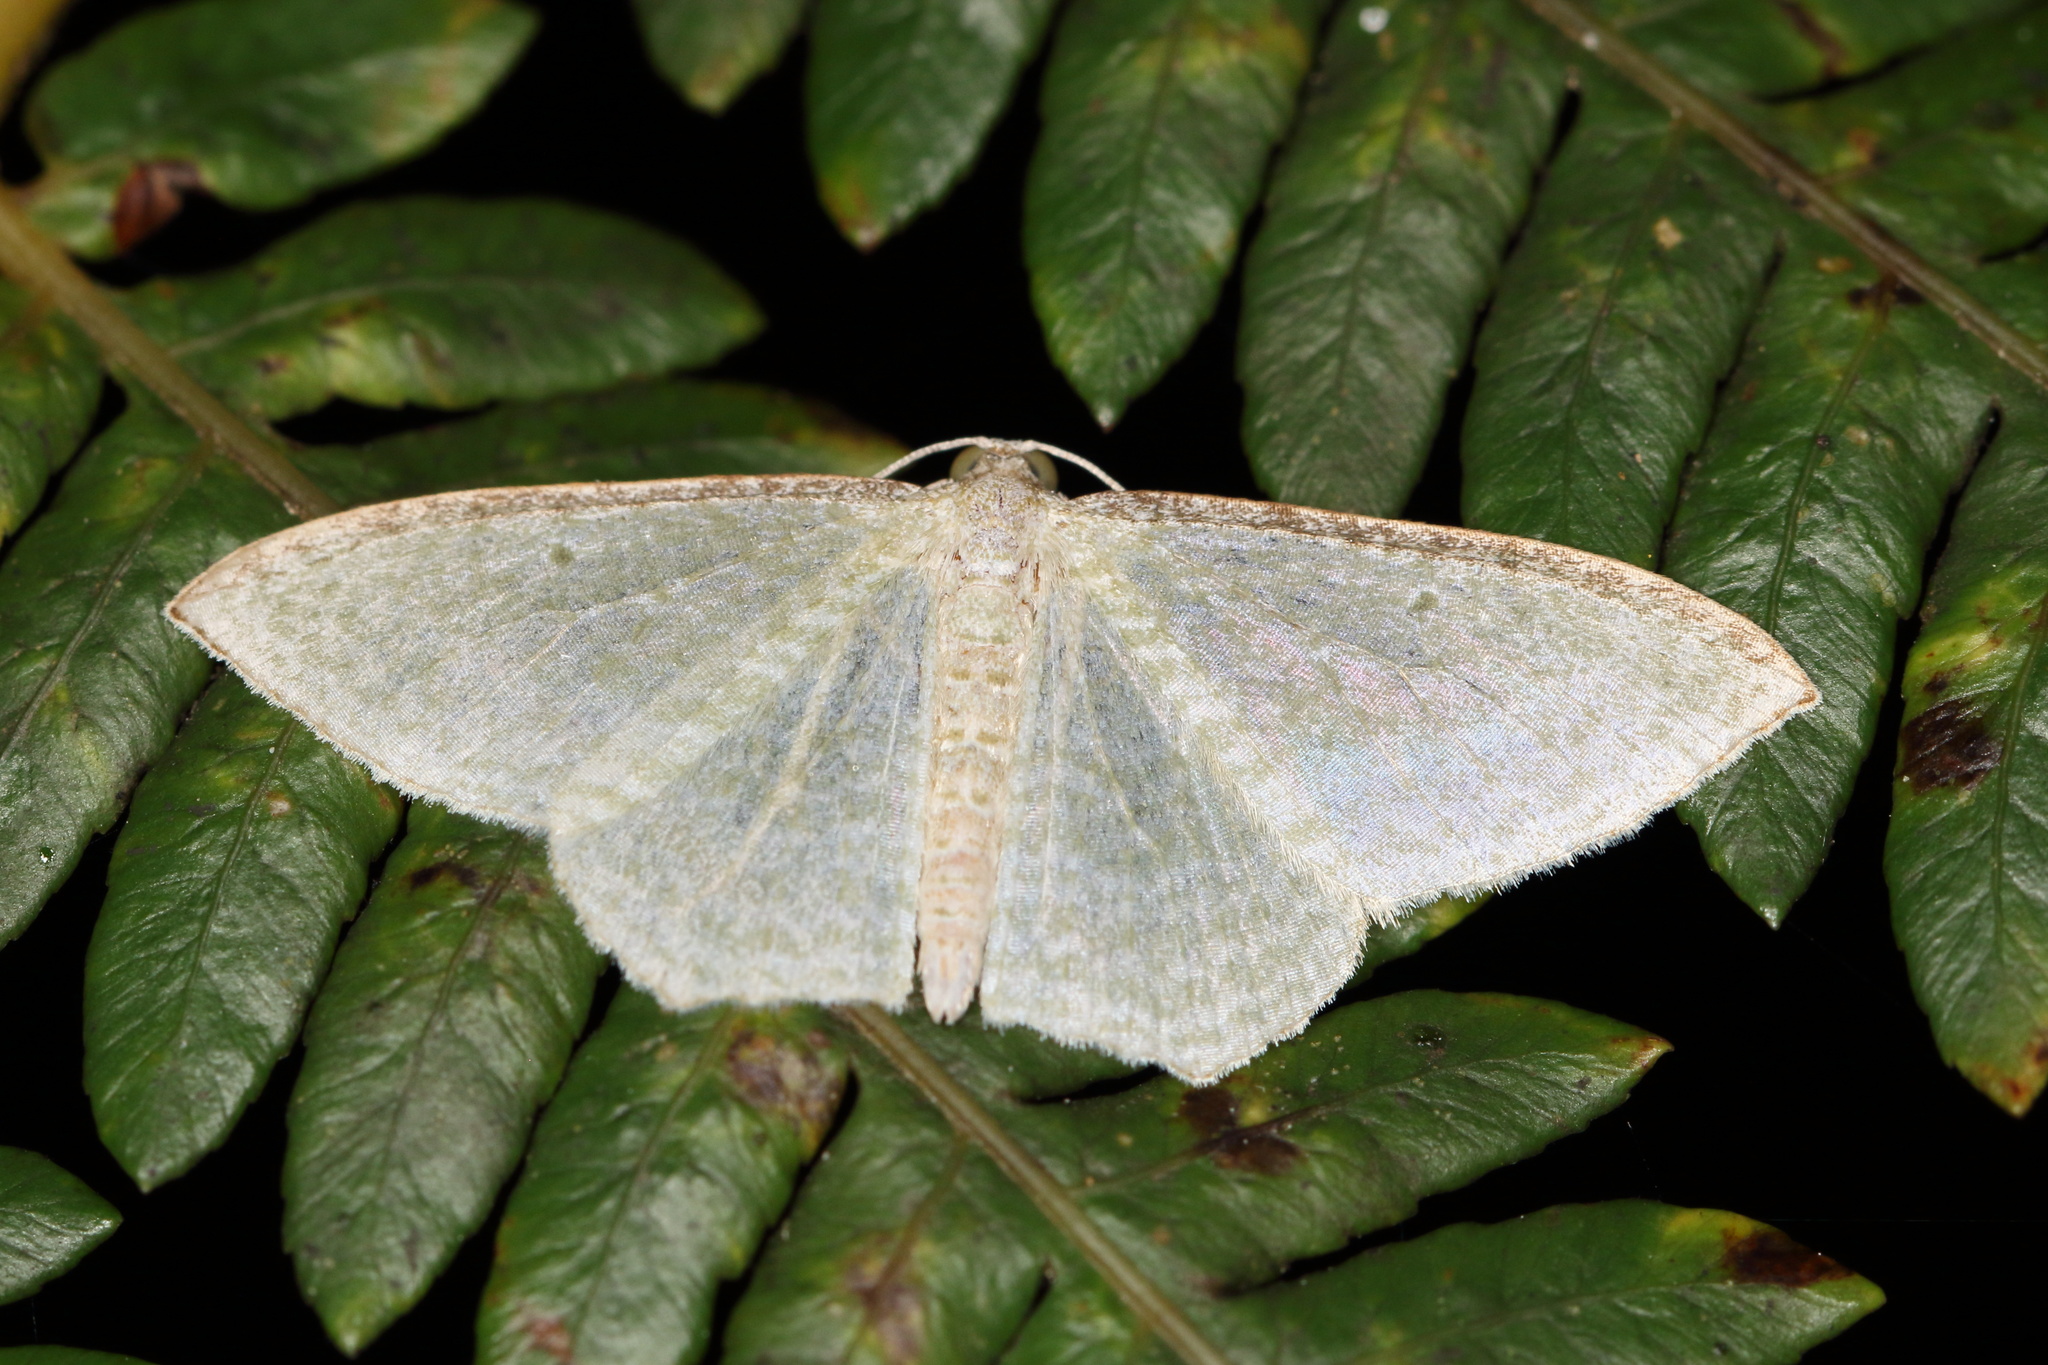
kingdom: Animalia
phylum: Arthropoda
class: Insecta
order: Lepidoptera
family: Geometridae
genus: Poecilasthena
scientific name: Poecilasthena pulchraria
